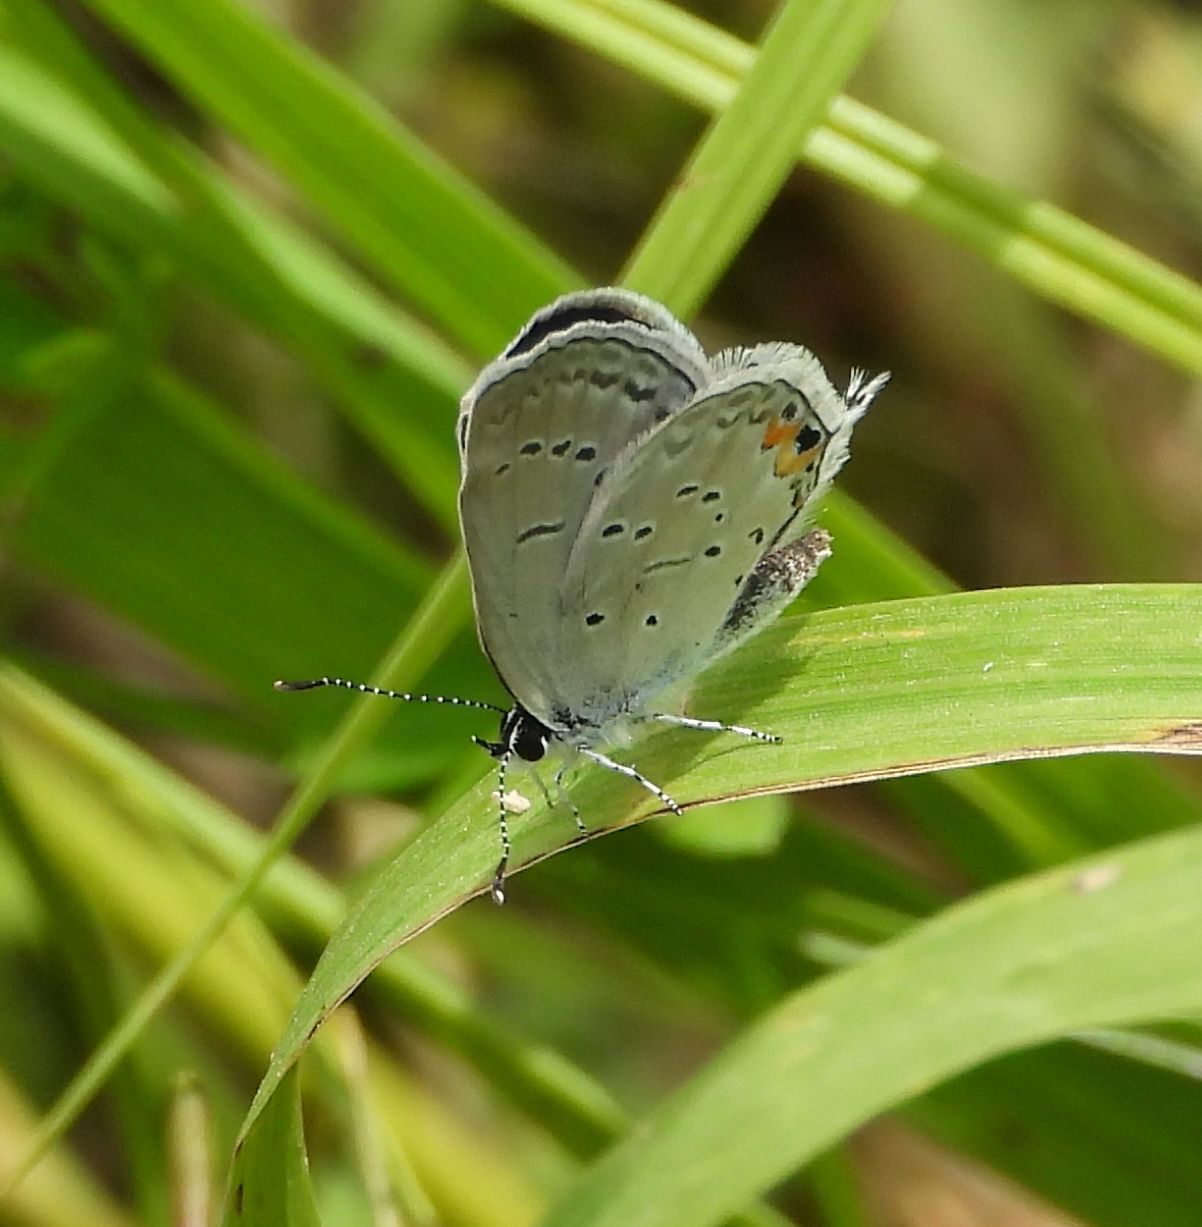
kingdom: Animalia
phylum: Arthropoda
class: Insecta
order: Lepidoptera
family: Lycaenidae
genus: Elkalyce
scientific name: Elkalyce comyntas
